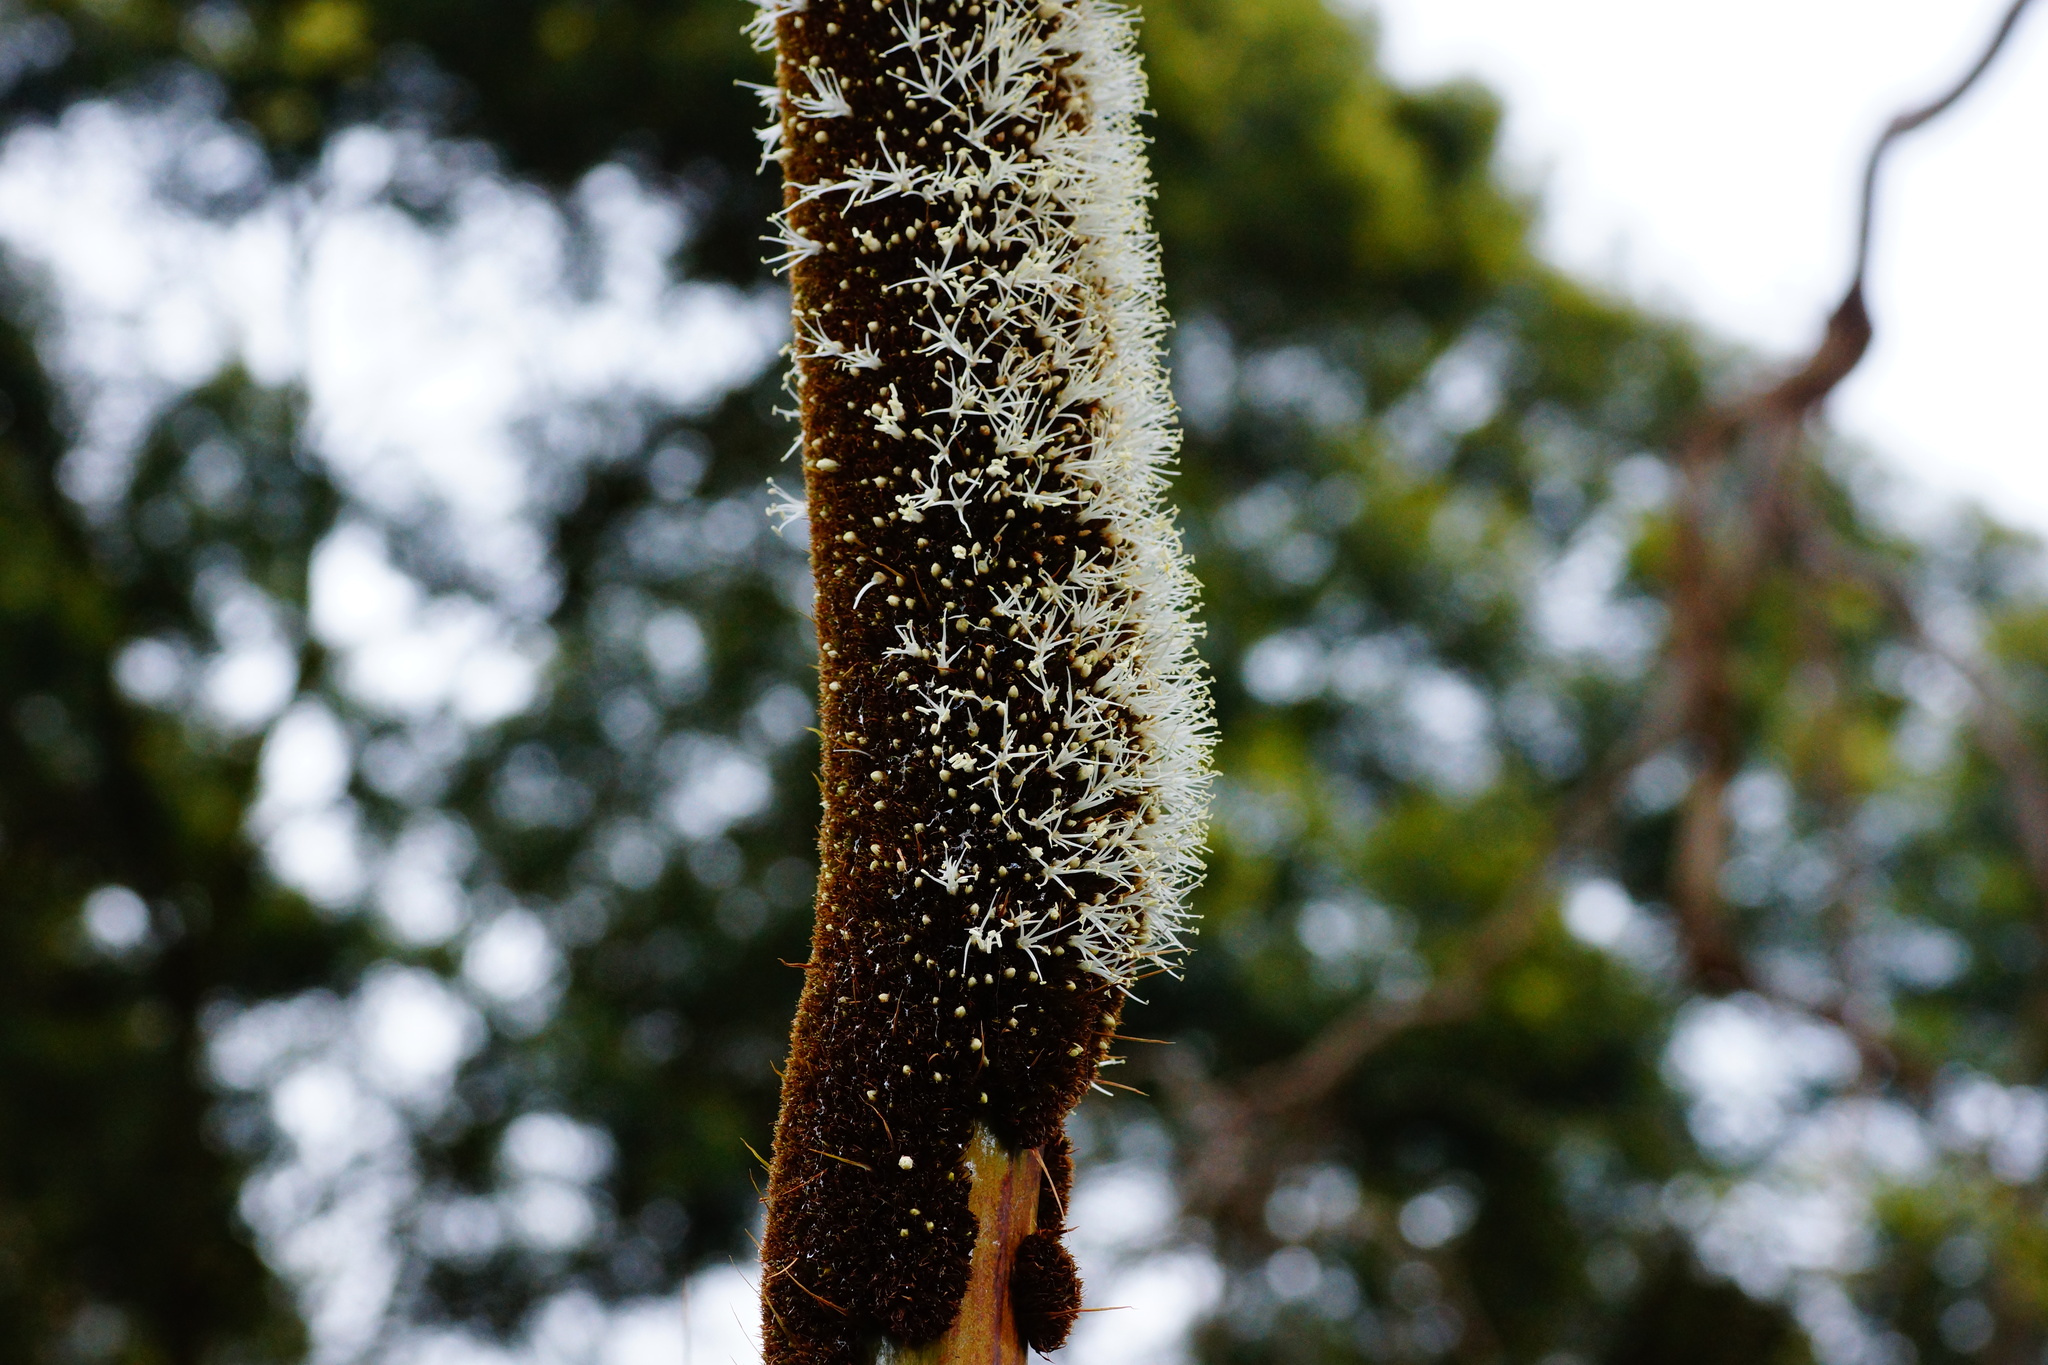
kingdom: Plantae
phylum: Tracheophyta
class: Liliopsida
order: Asparagales
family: Asphodelaceae
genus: Xanthorrhoea
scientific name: Xanthorrhoea australis
